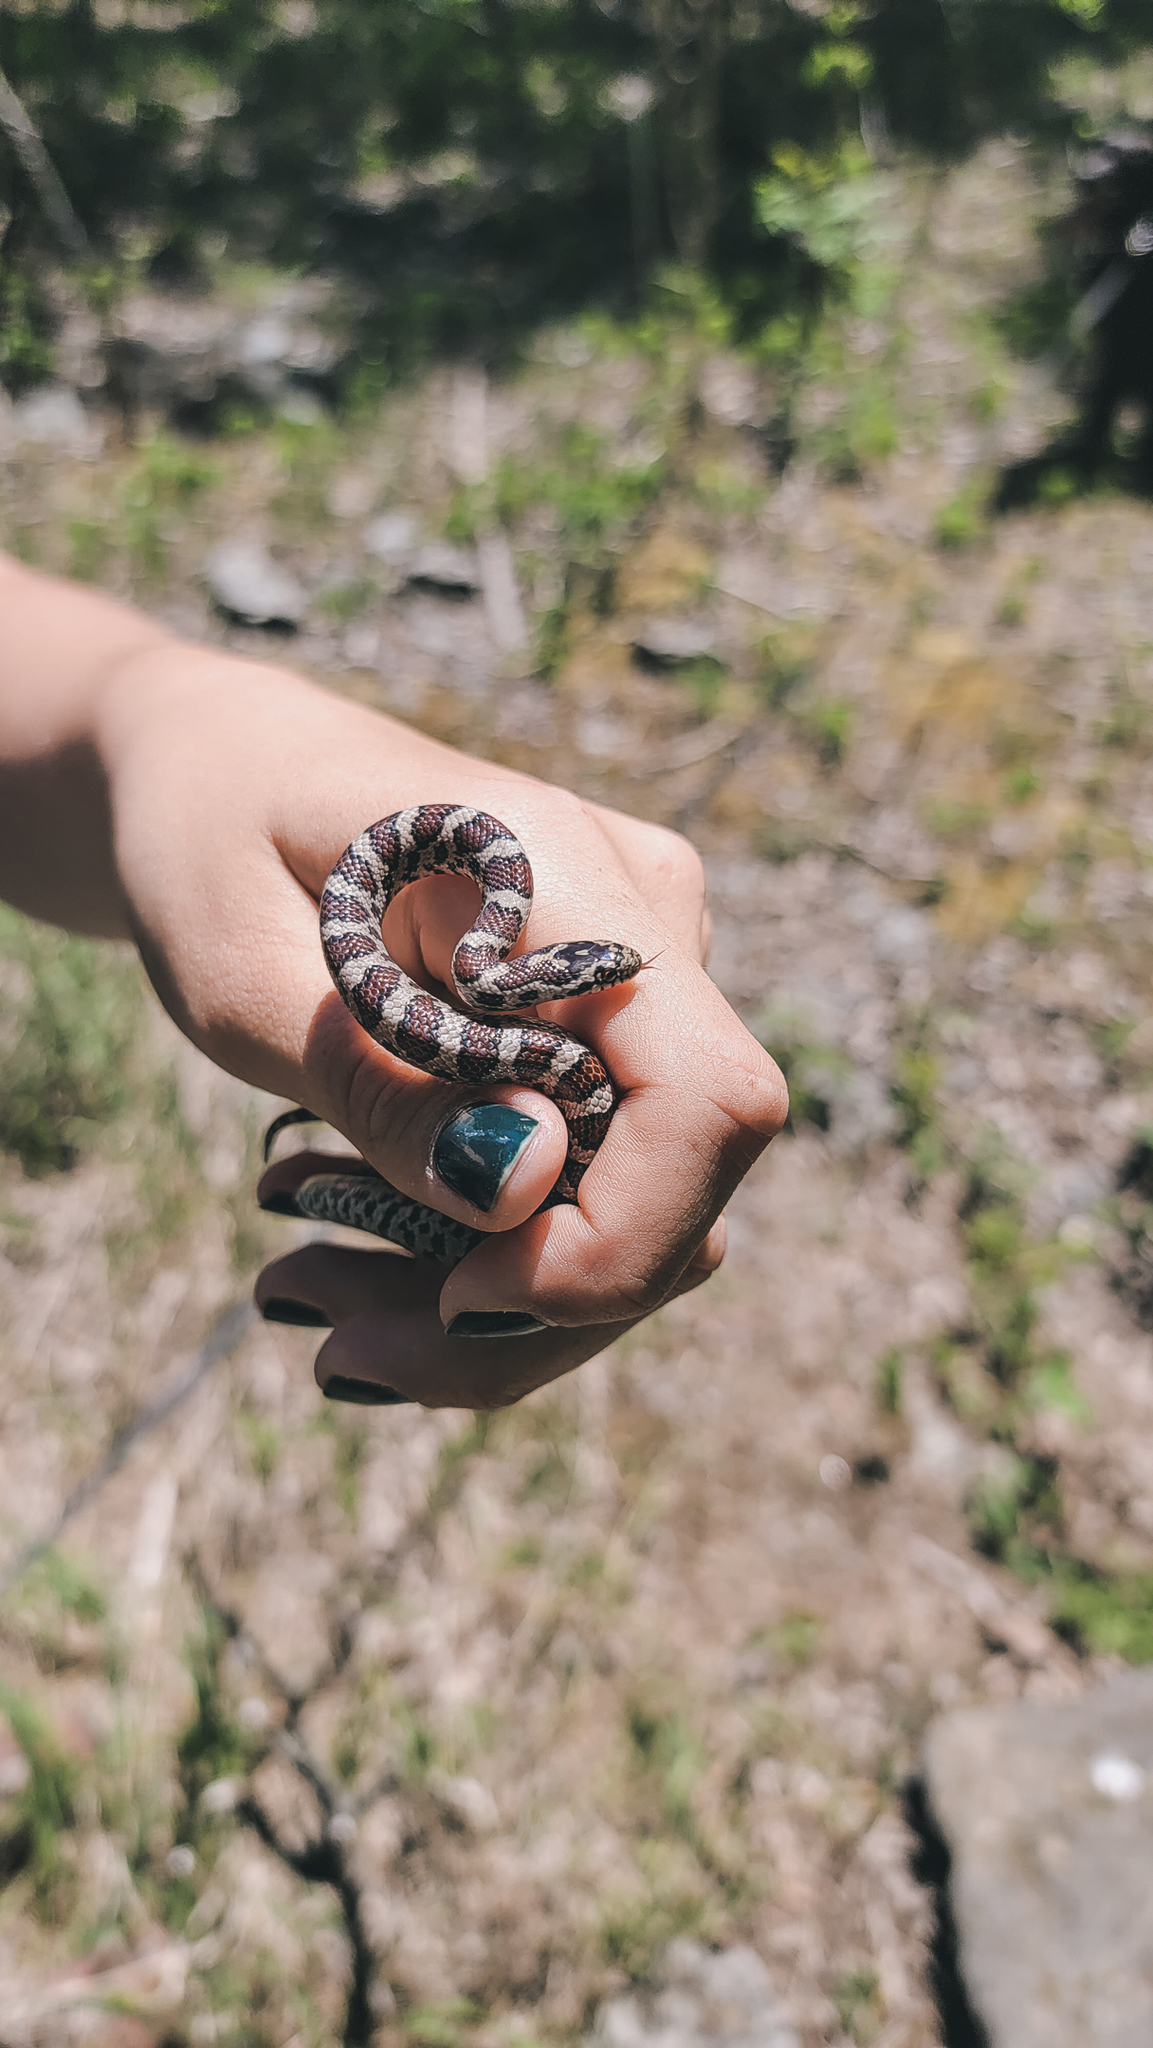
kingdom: Animalia
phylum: Chordata
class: Squamata
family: Colubridae
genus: Lampropeltis
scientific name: Lampropeltis triangulum
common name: Eastern milksnake
